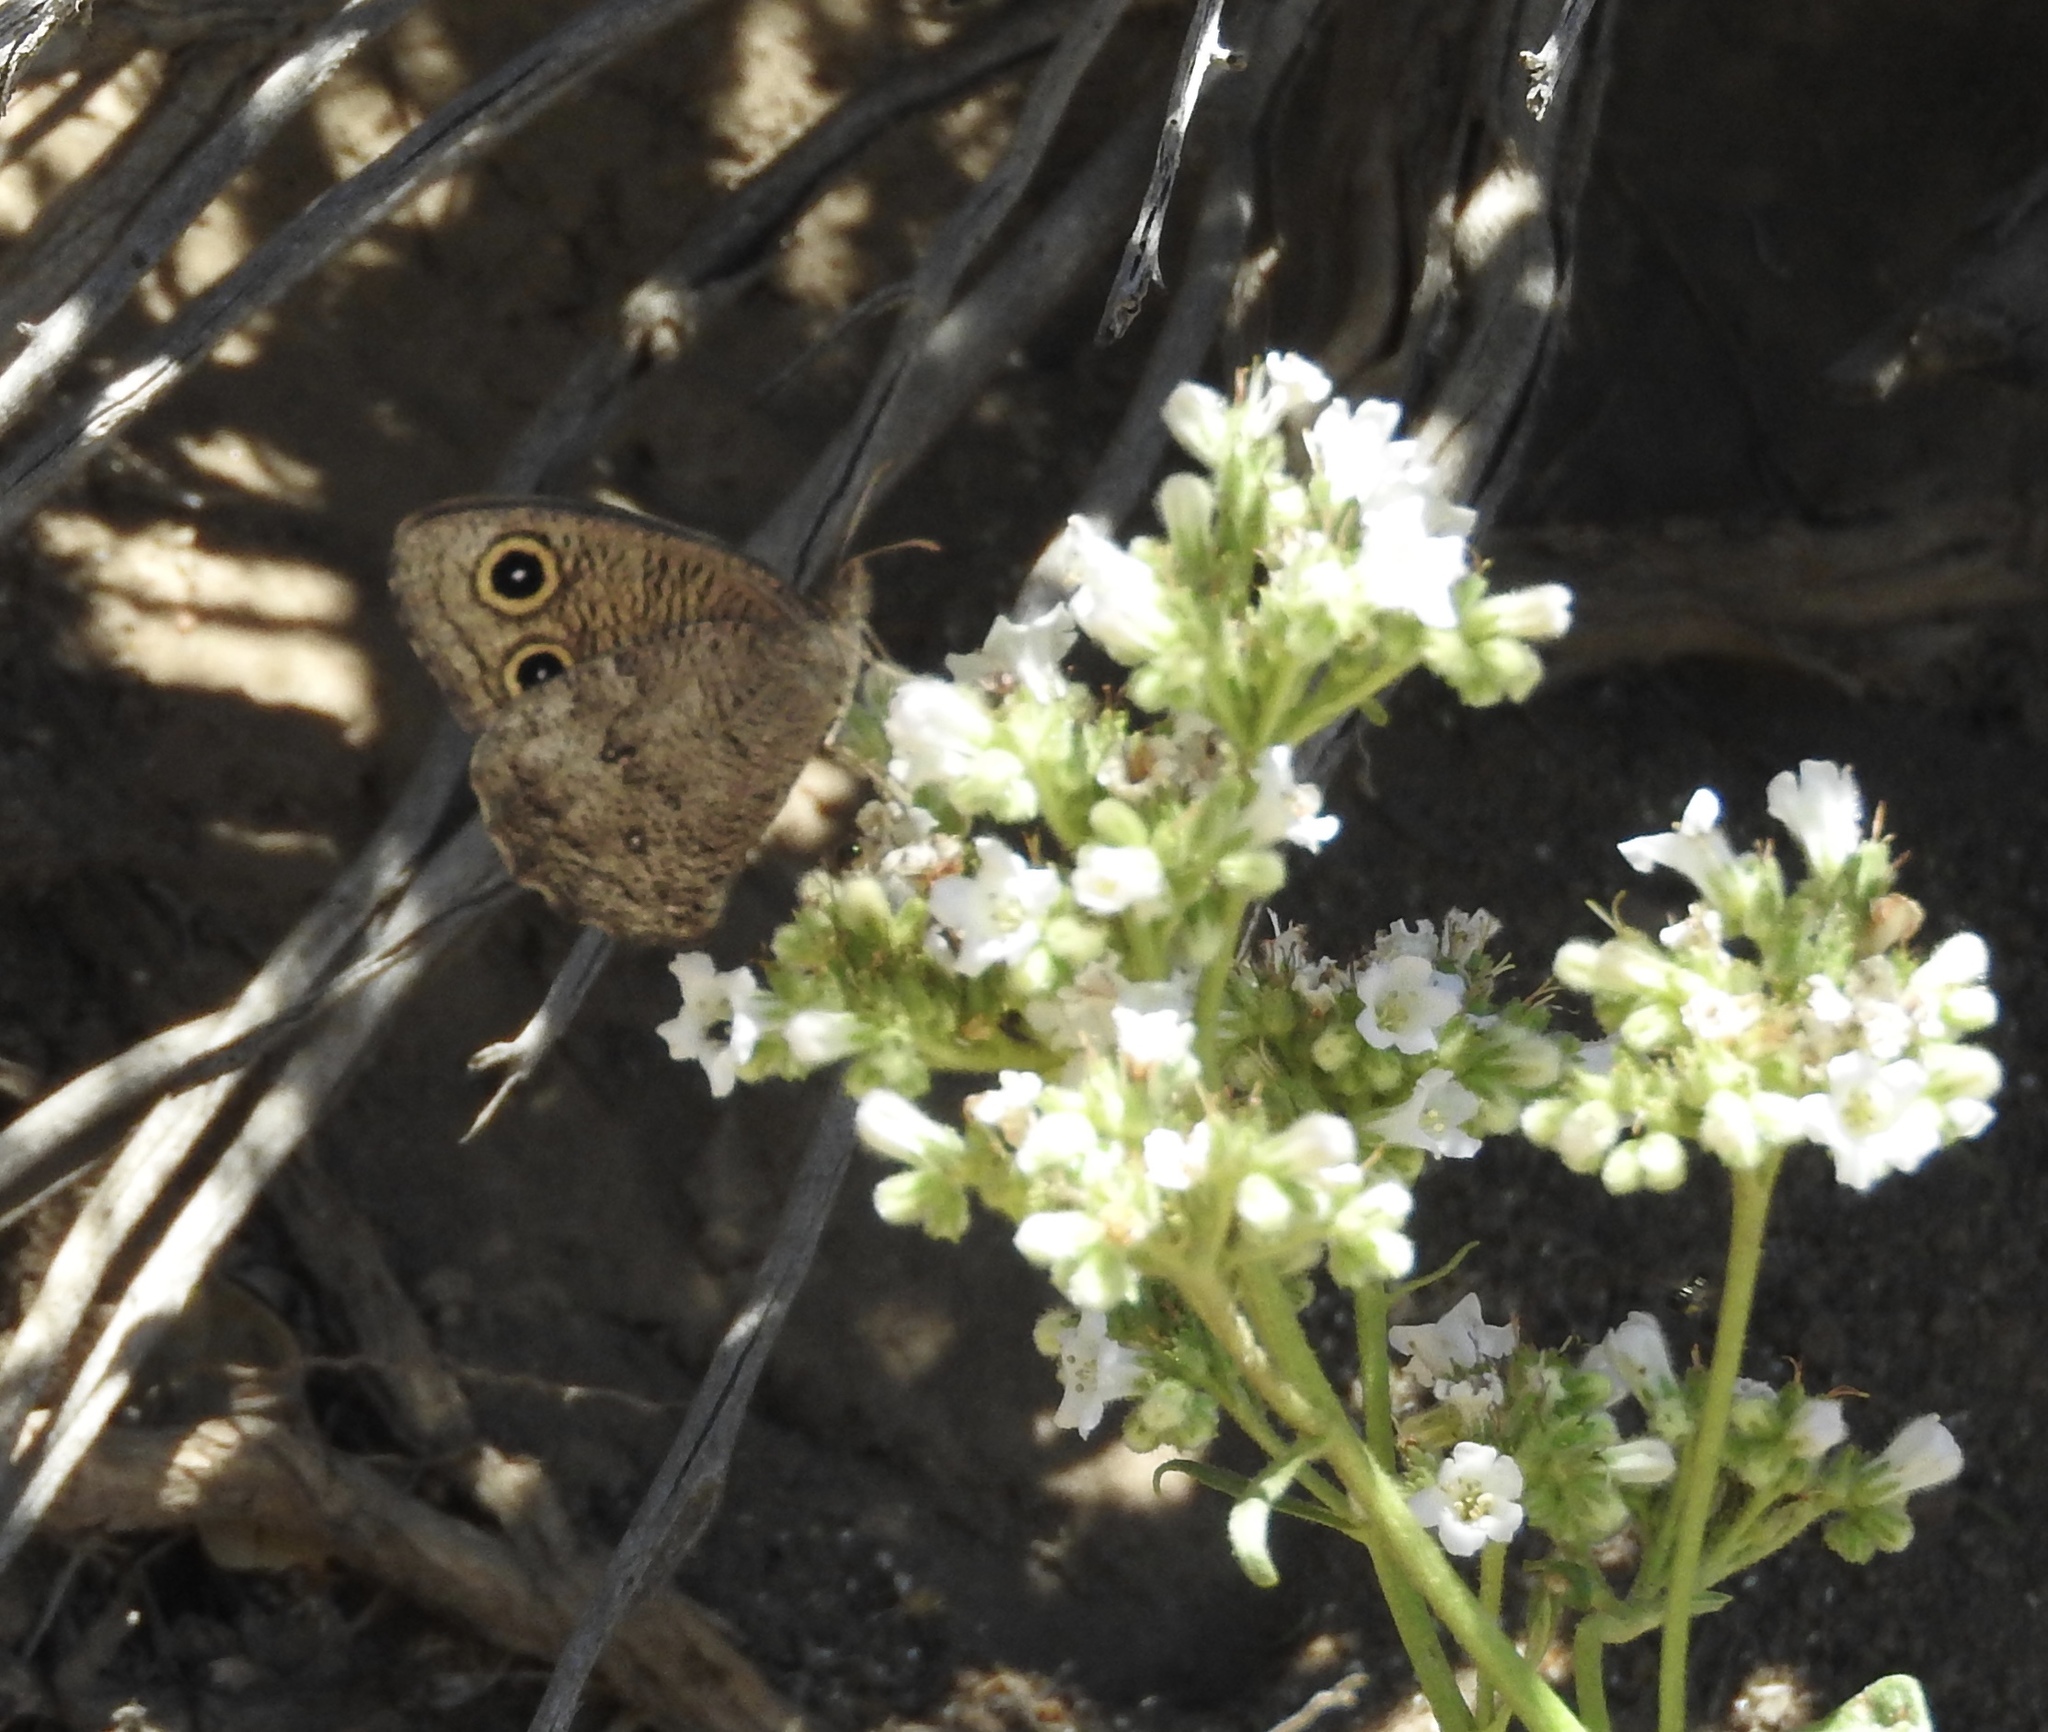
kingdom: Animalia
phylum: Arthropoda
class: Insecta
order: Lepidoptera
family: Nymphalidae
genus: Cercyonis
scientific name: Cercyonis sthenele
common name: Great basin wood-nymph
